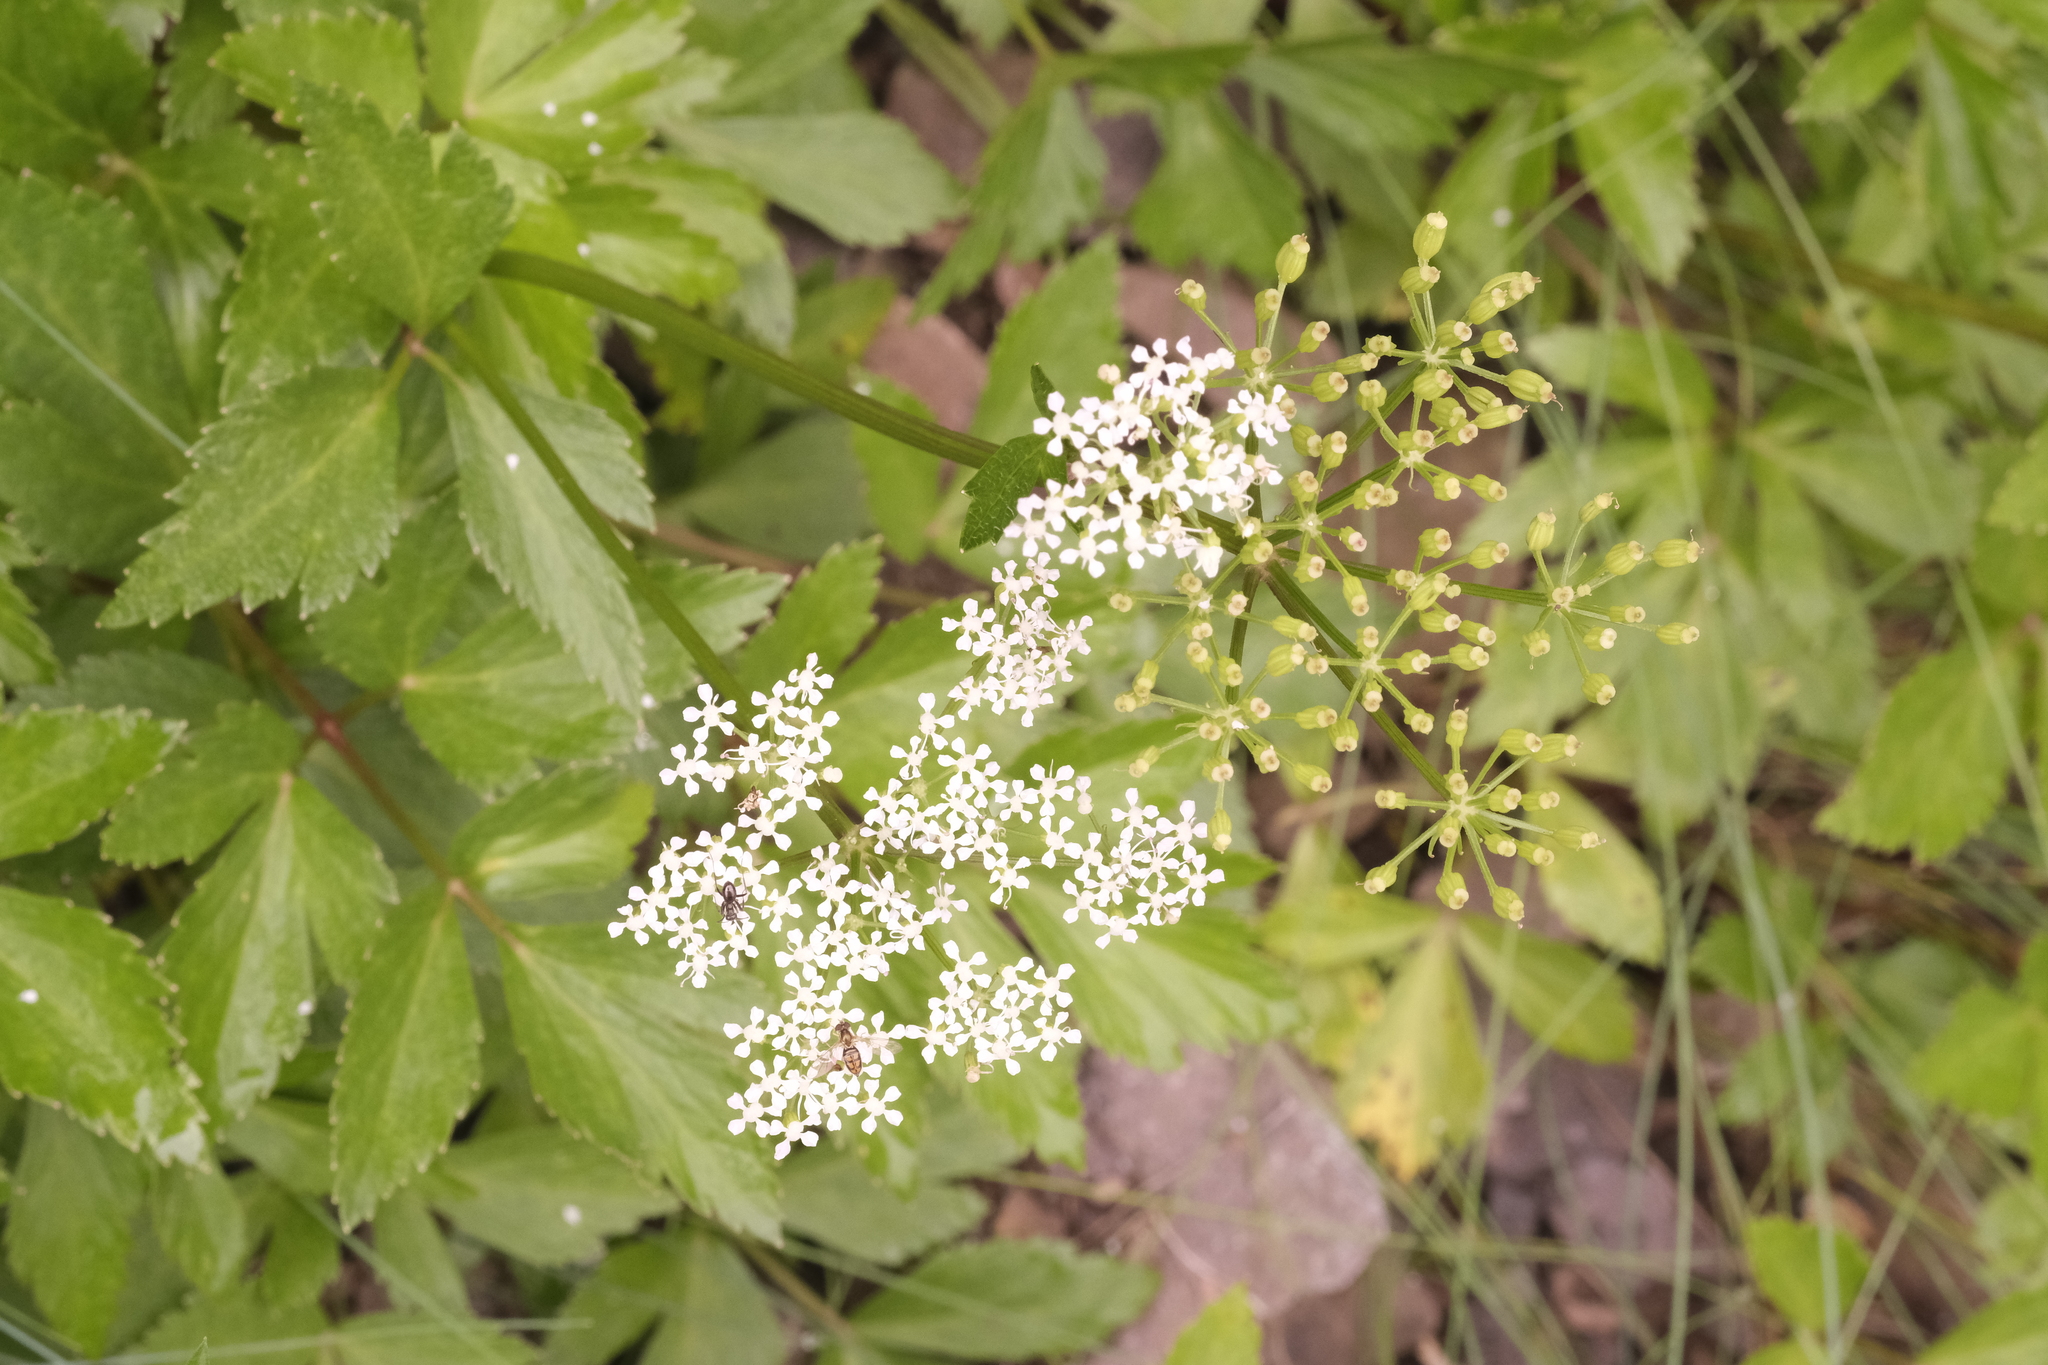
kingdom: Plantae
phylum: Tracheophyta
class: Magnoliopsida
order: Apiales
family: Apiaceae
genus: Ligusticum
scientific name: Ligusticum scothicum
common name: Beach lovage
